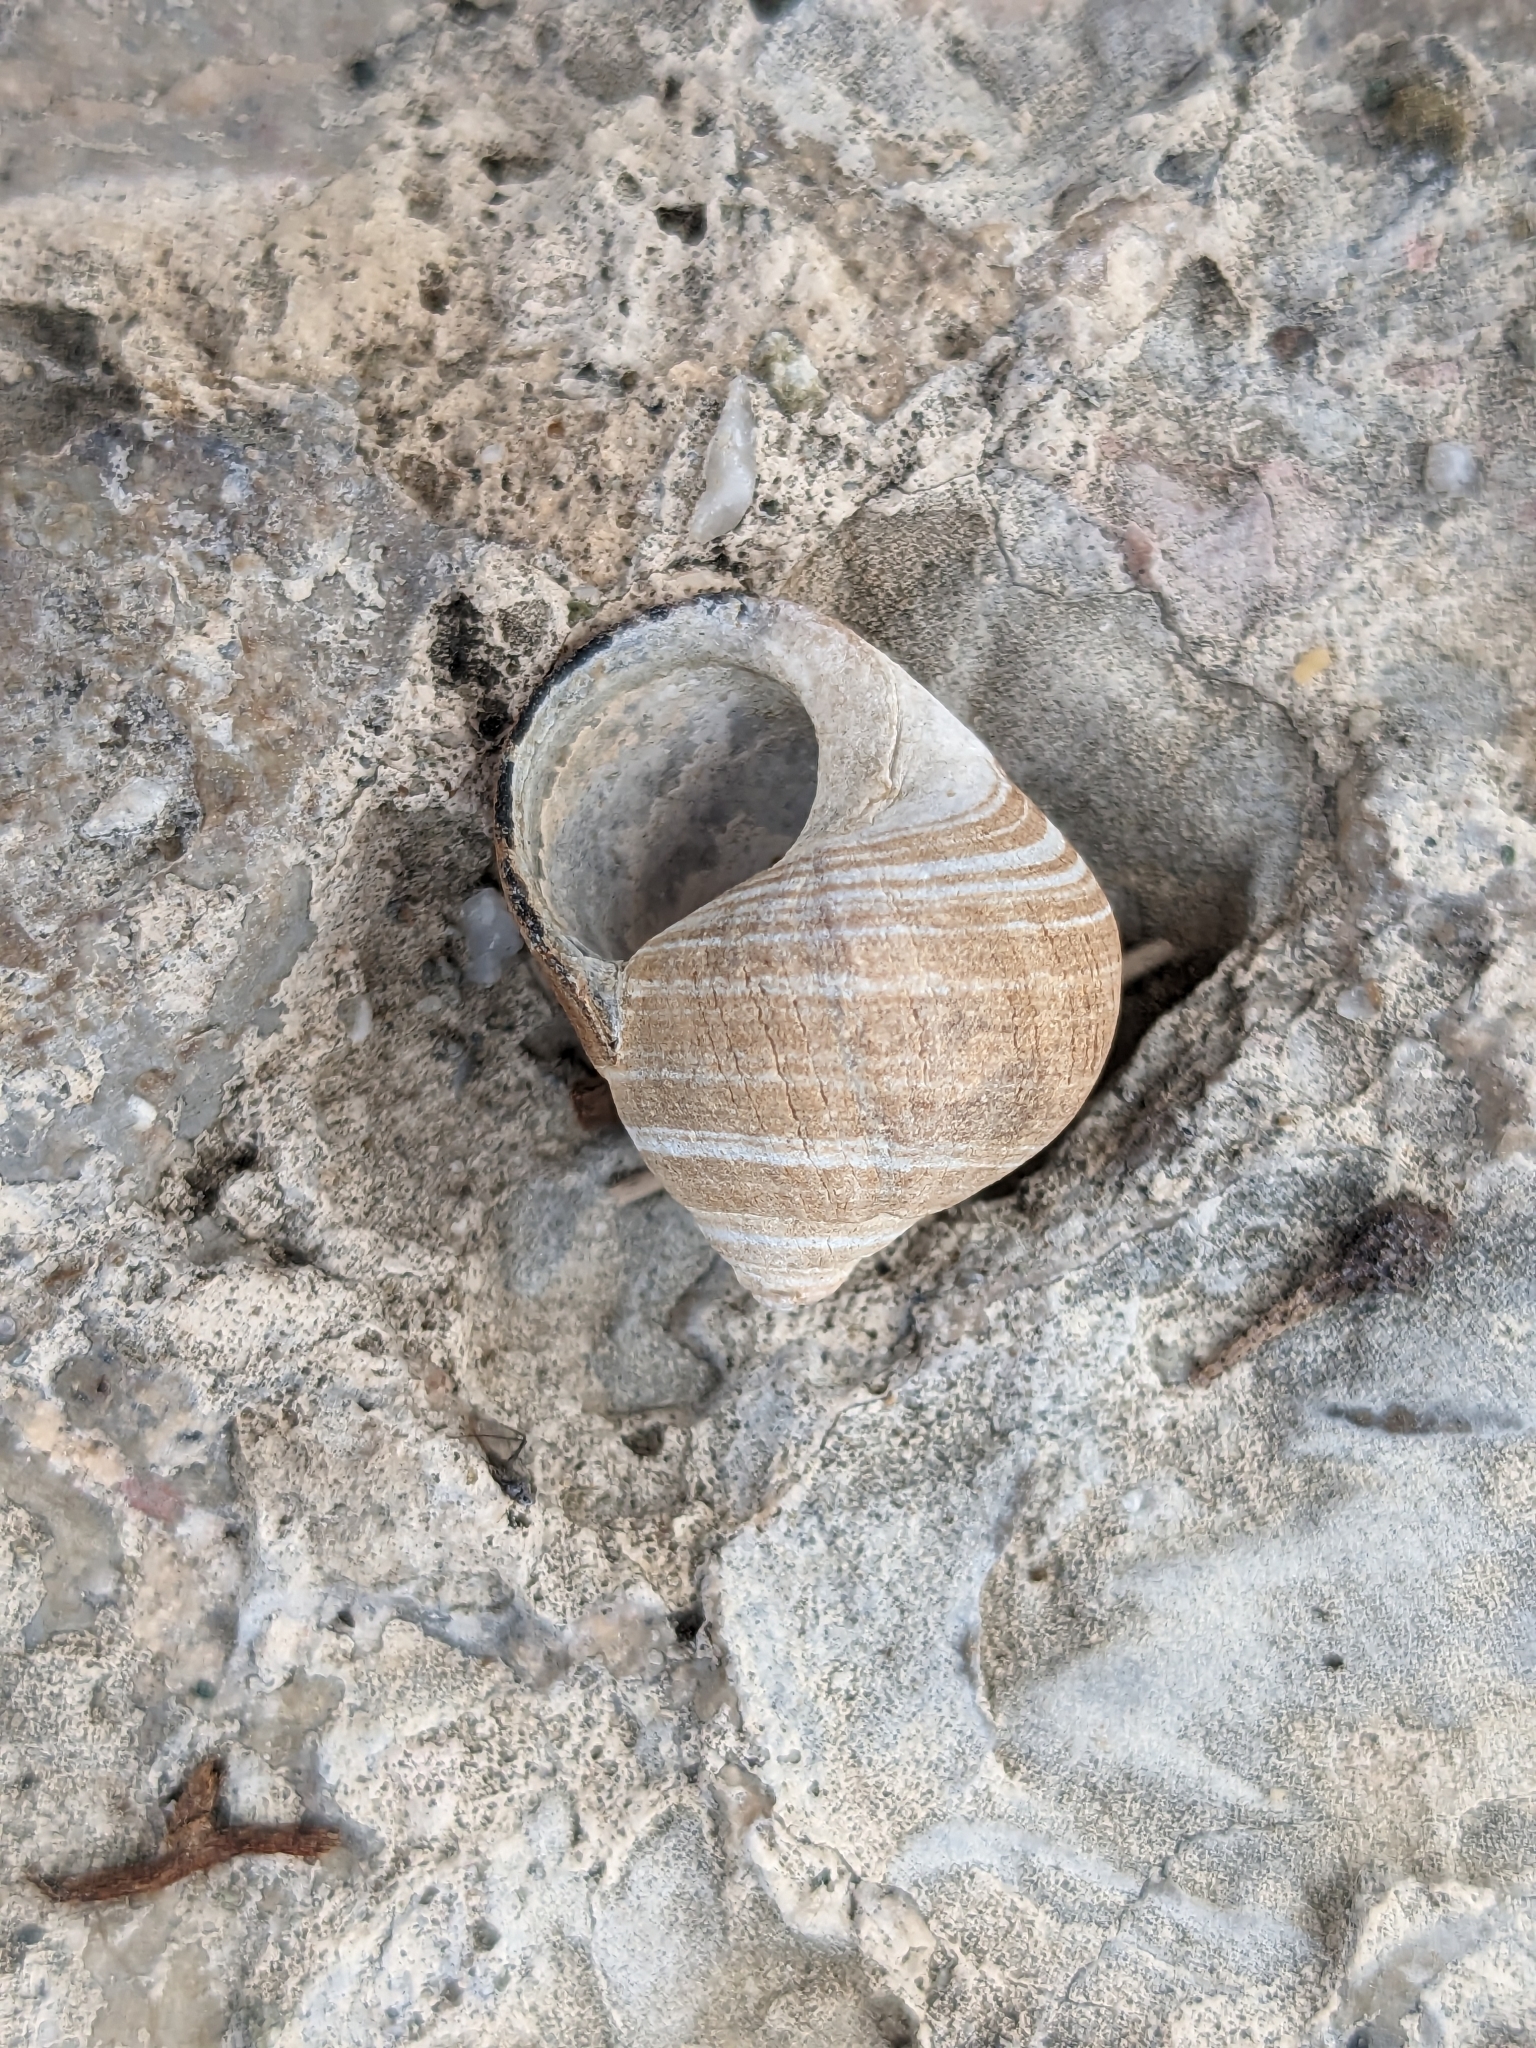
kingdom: Animalia
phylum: Mollusca
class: Gastropoda
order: Littorinimorpha
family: Littorinidae
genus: Littorina
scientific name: Littorina littorea
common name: Common periwinkle
